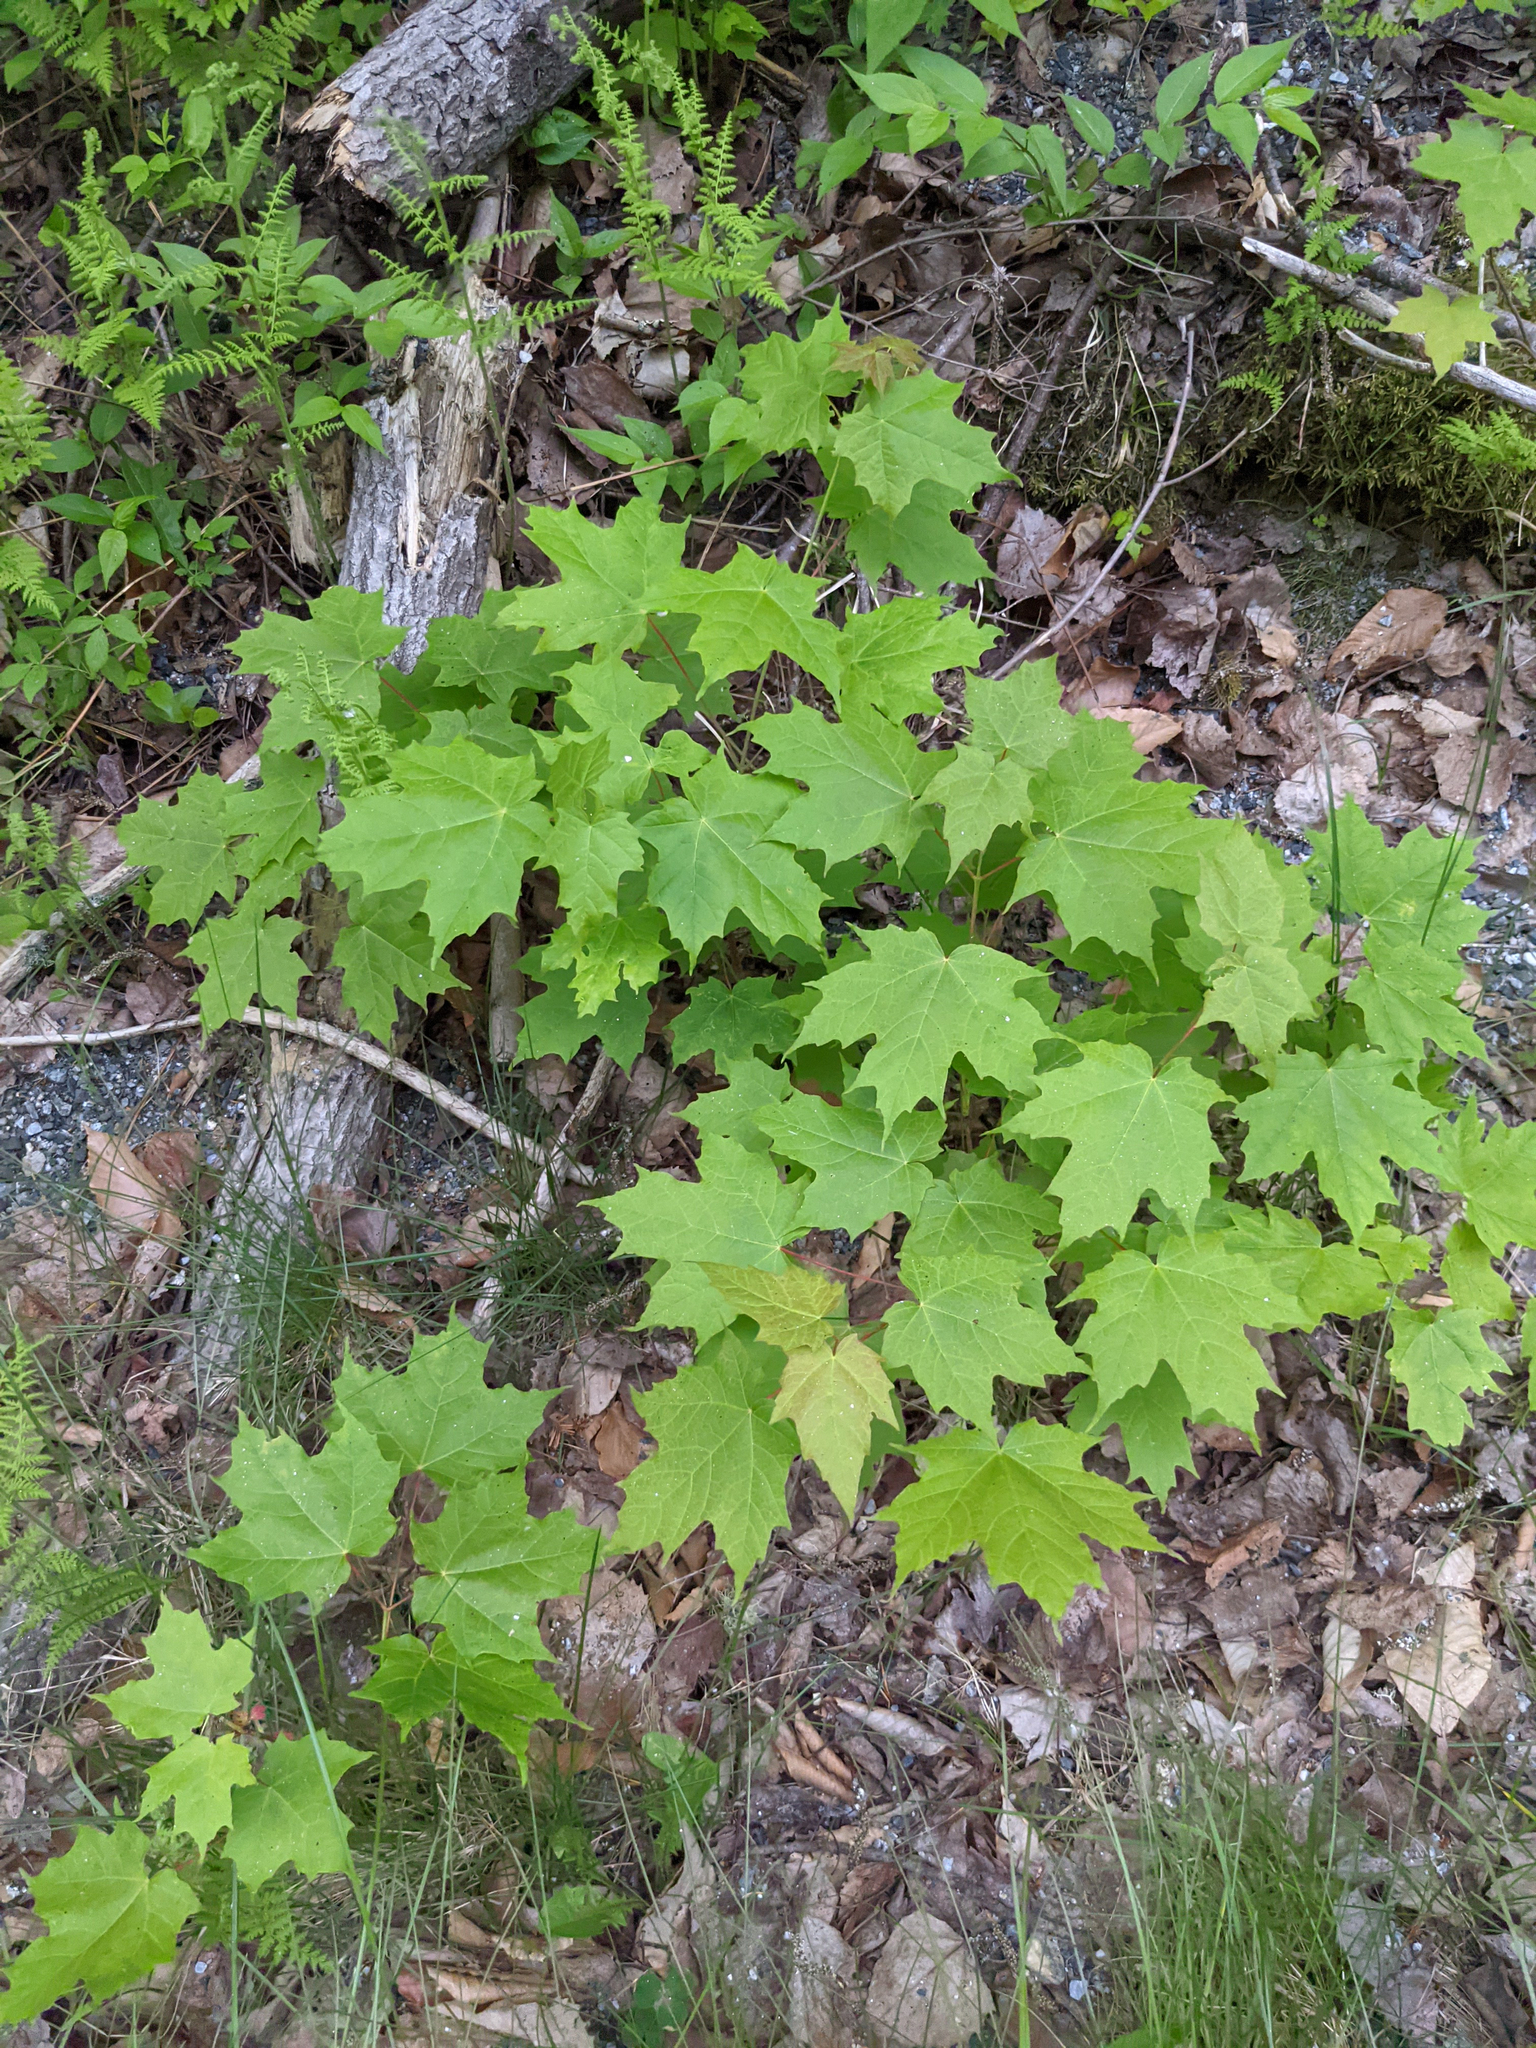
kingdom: Plantae
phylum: Tracheophyta
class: Magnoliopsida
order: Sapindales
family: Sapindaceae
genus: Acer
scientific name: Acer saccharum
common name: Sugar maple
